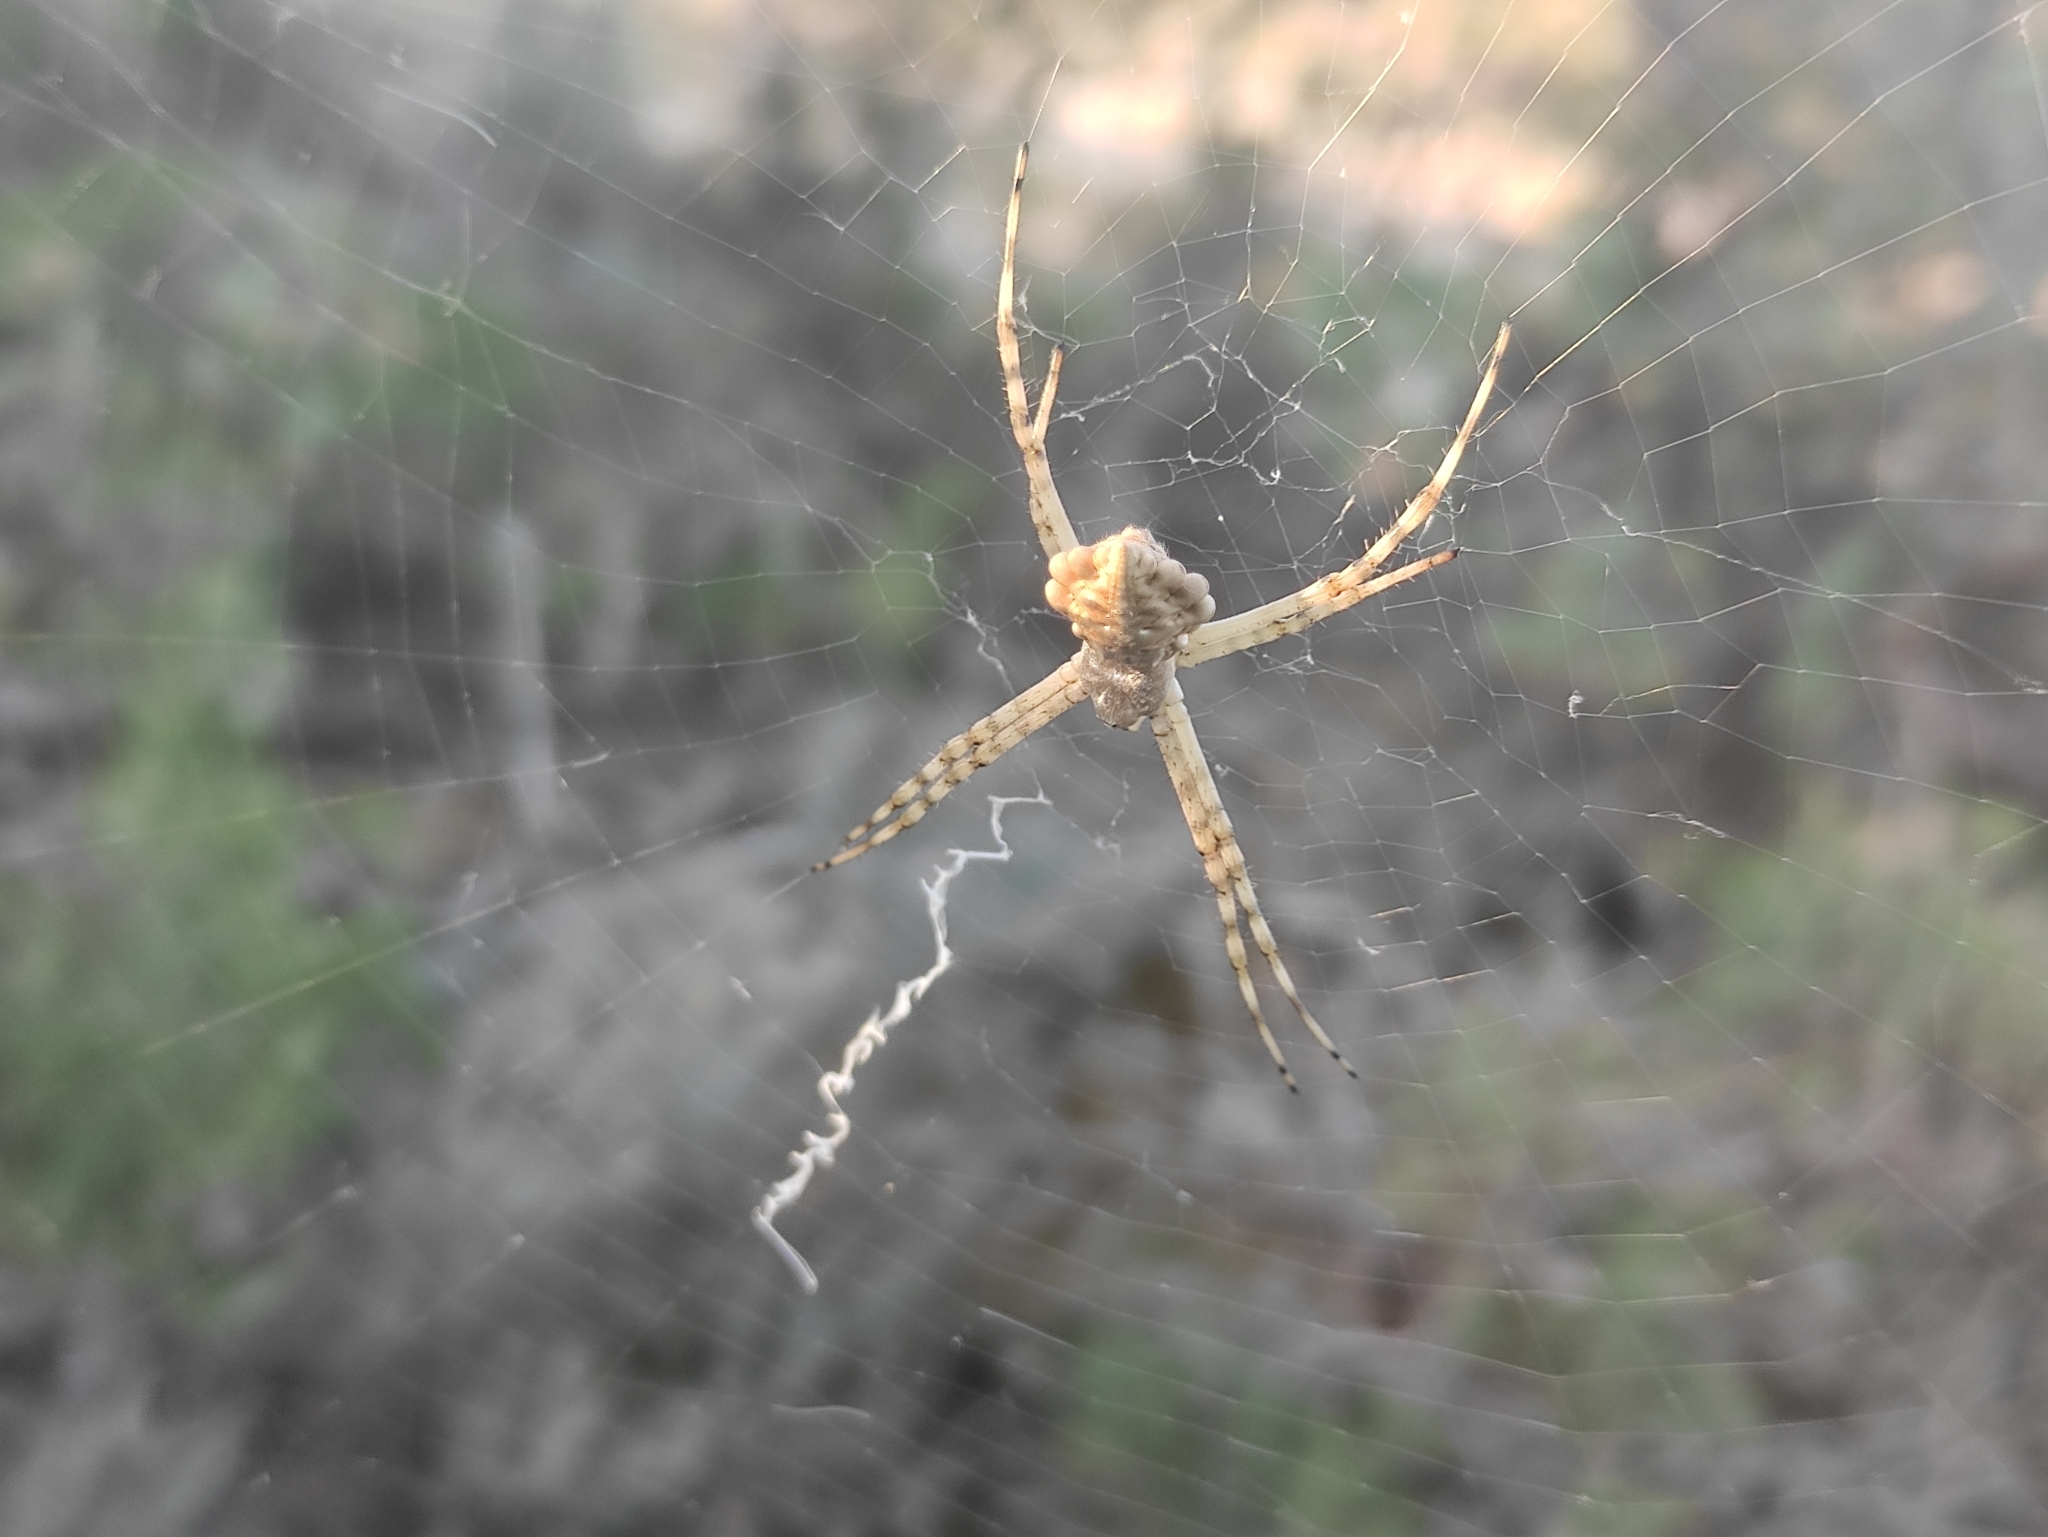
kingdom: Animalia
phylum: Arthropoda
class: Arachnida
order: Araneae
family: Araneidae
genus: Argiope
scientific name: Argiope lobata
